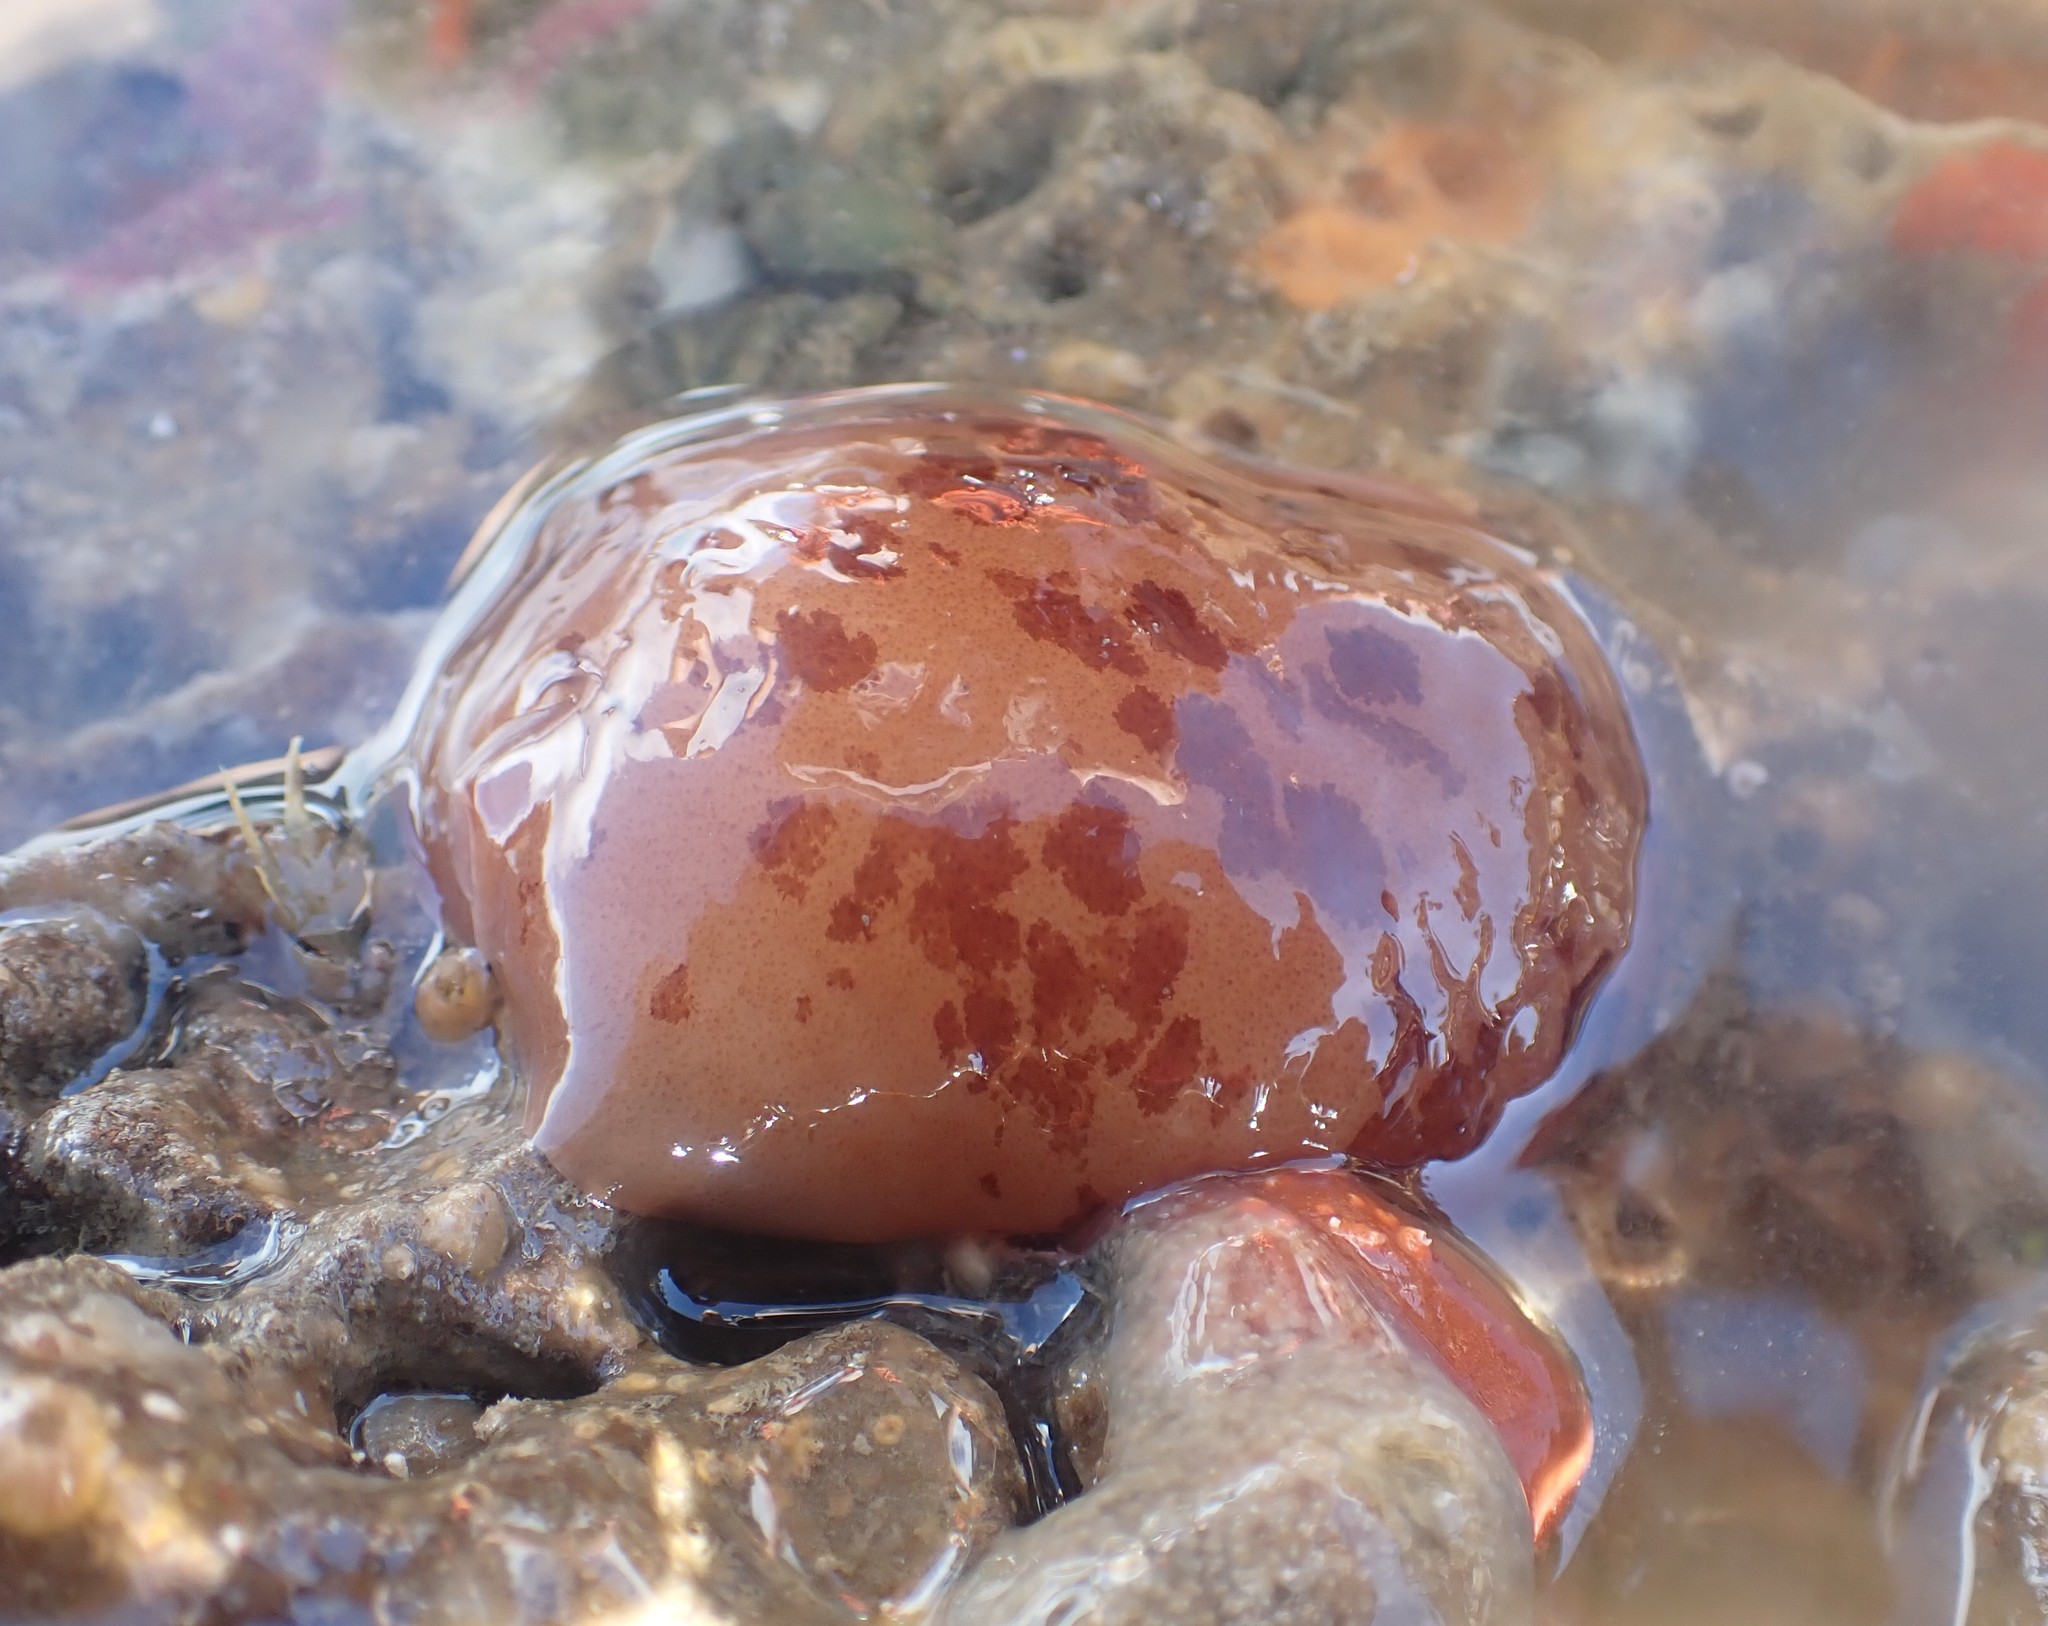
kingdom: Animalia
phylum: Mollusca
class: Gastropoda
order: Pleurobranchida
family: Pleurobranchidae
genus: Berthella
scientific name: Berthella ornata
